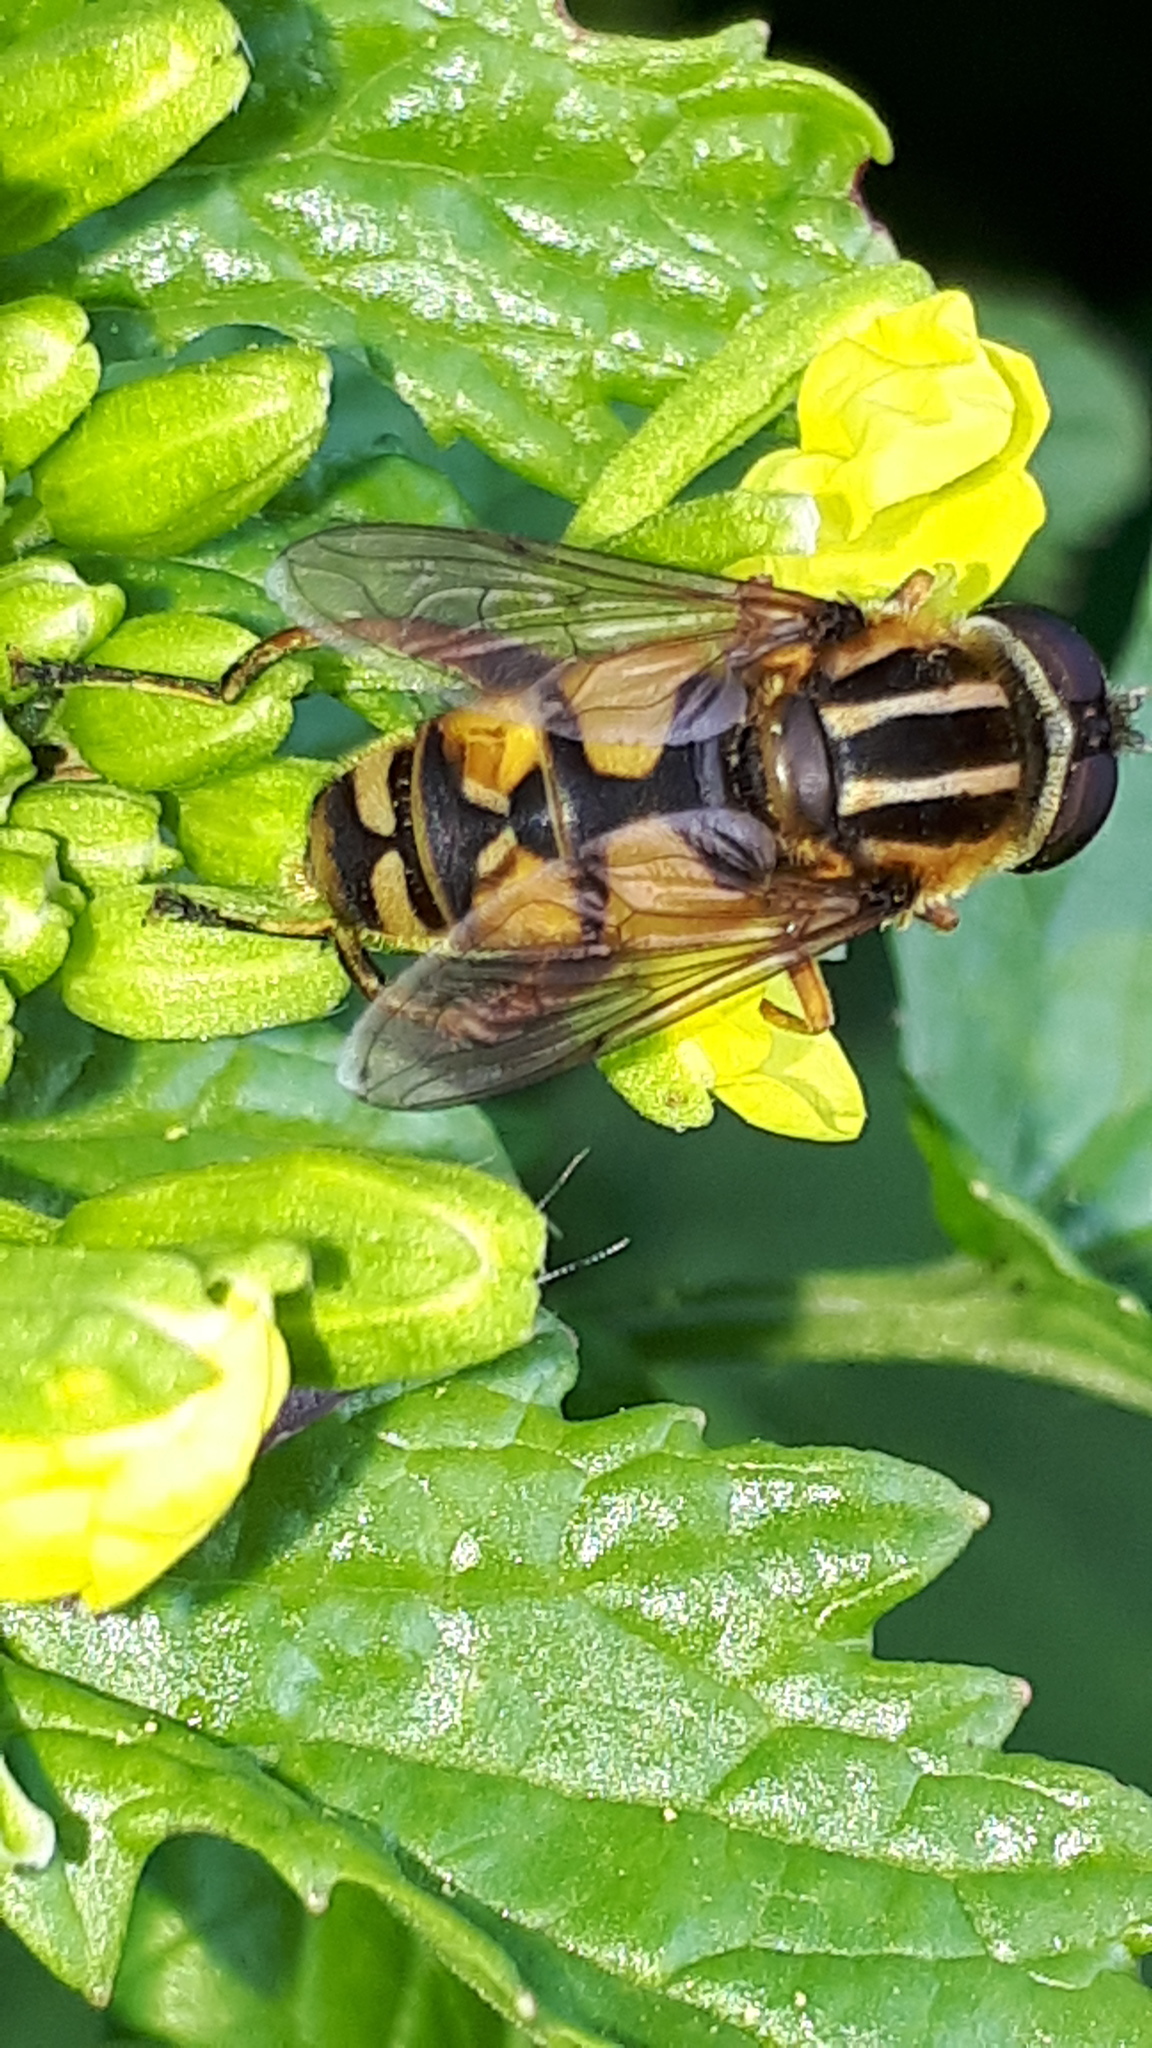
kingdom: Animalia
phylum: Arthropoda
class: Insecta
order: Diptera
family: Syrphidae
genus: Helophilus
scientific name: Helophilus pendulus
